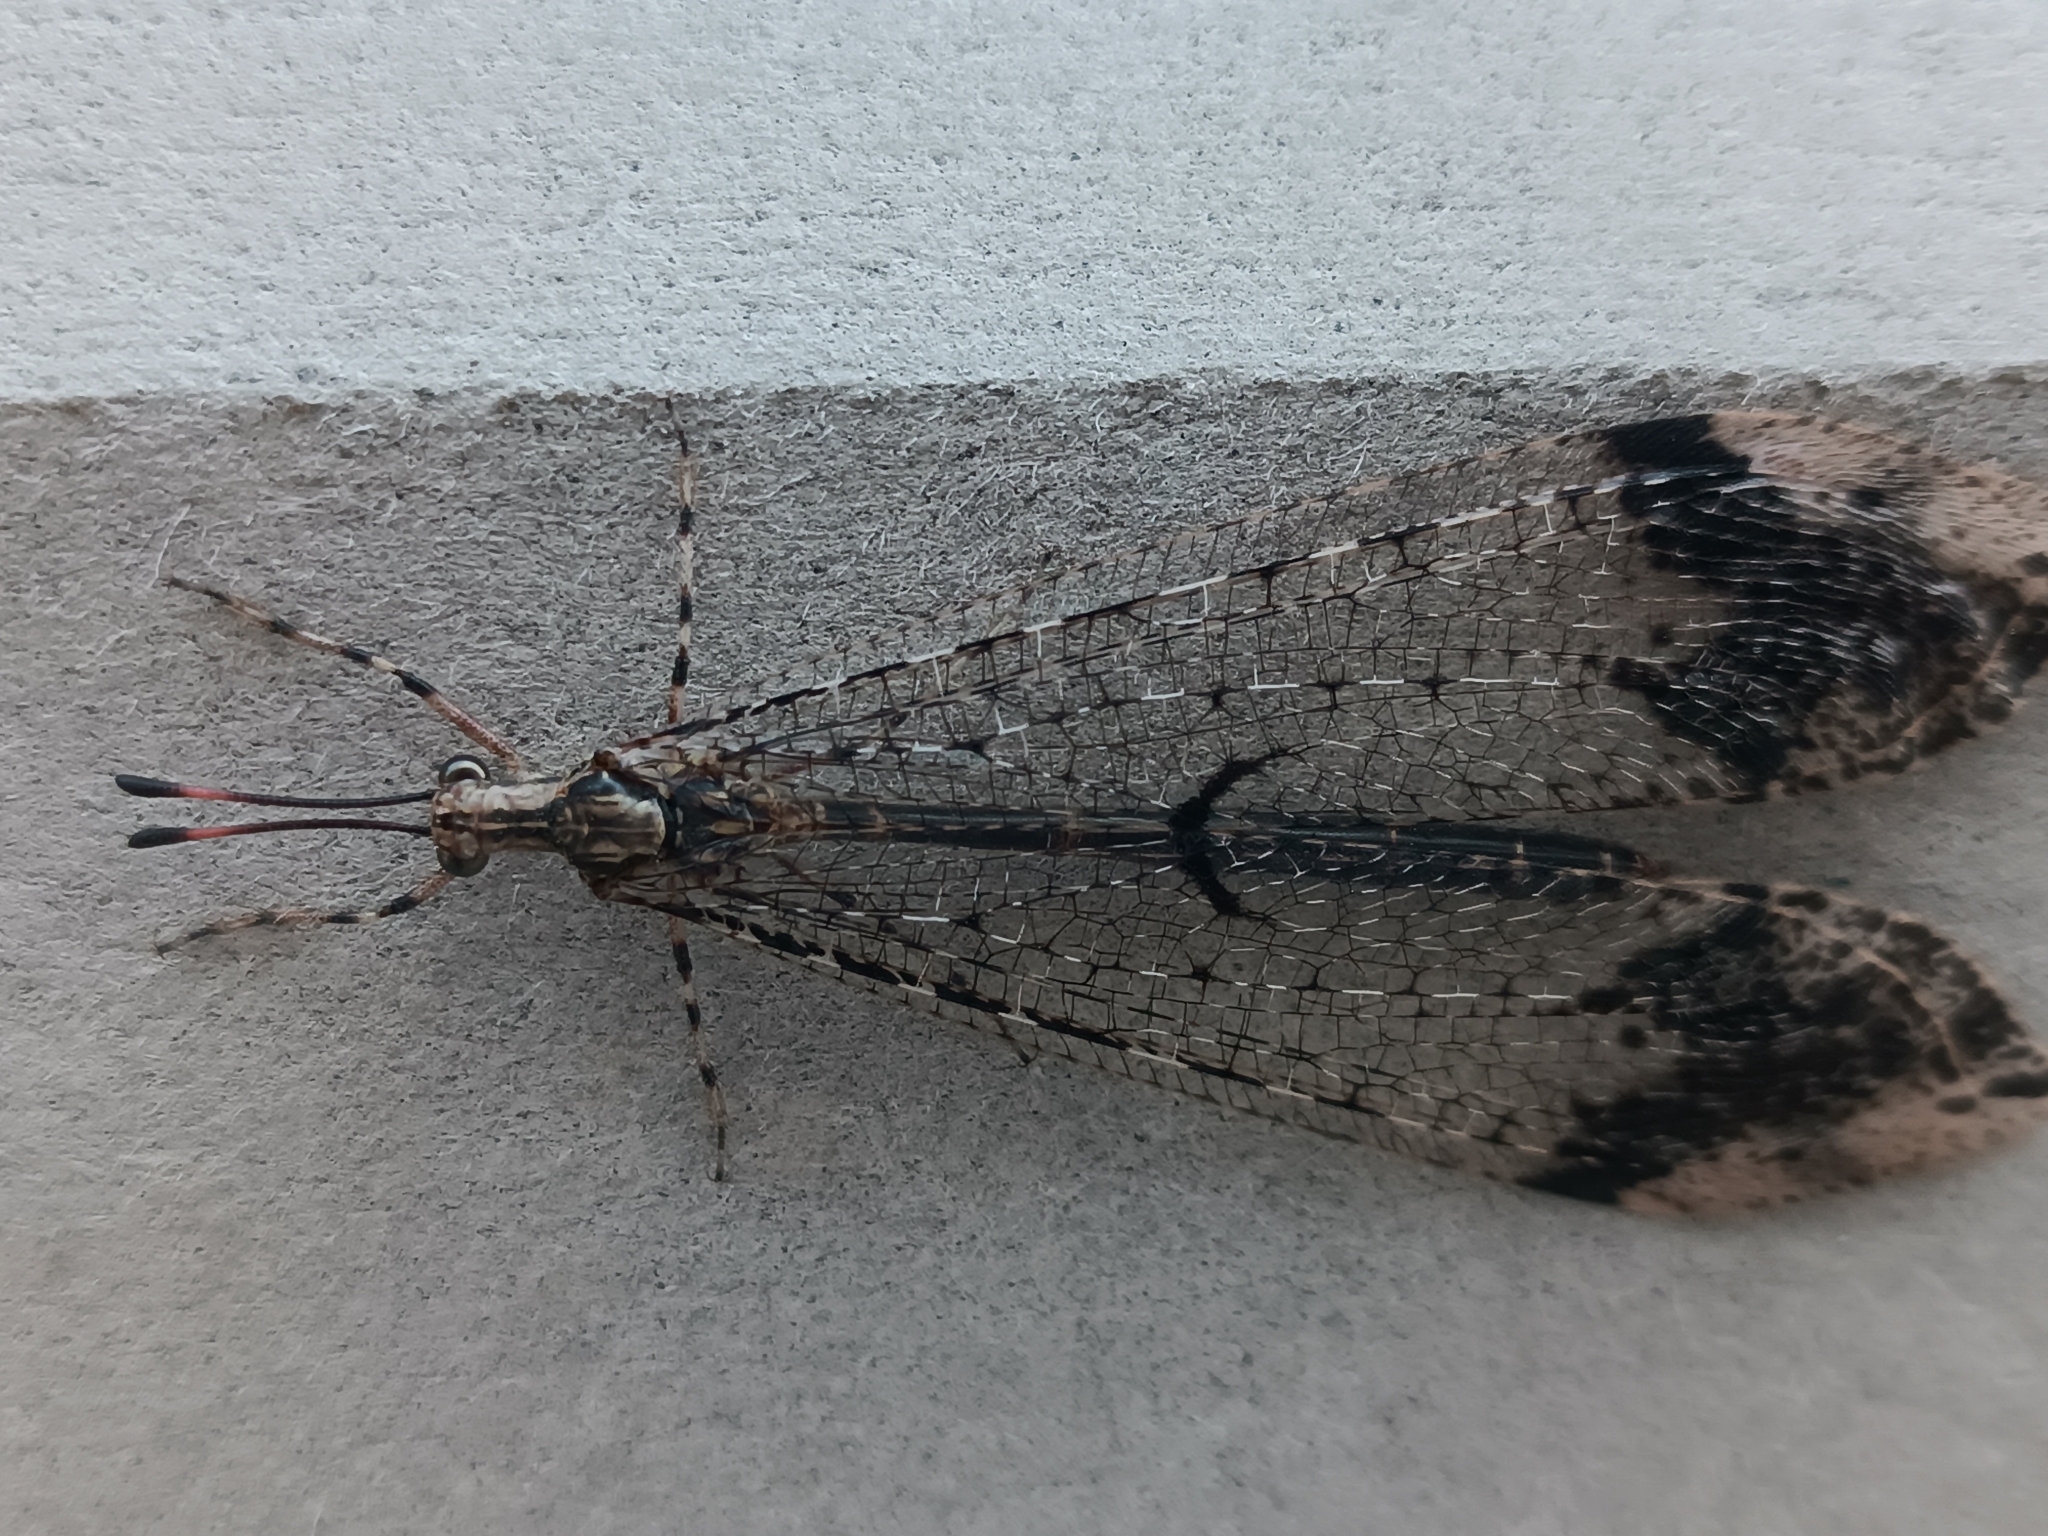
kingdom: Animalia
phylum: Arthropoda
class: Insecta
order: Neuroptera
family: Myrmeleontidae
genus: Glenurus
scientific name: Glenurus proi
